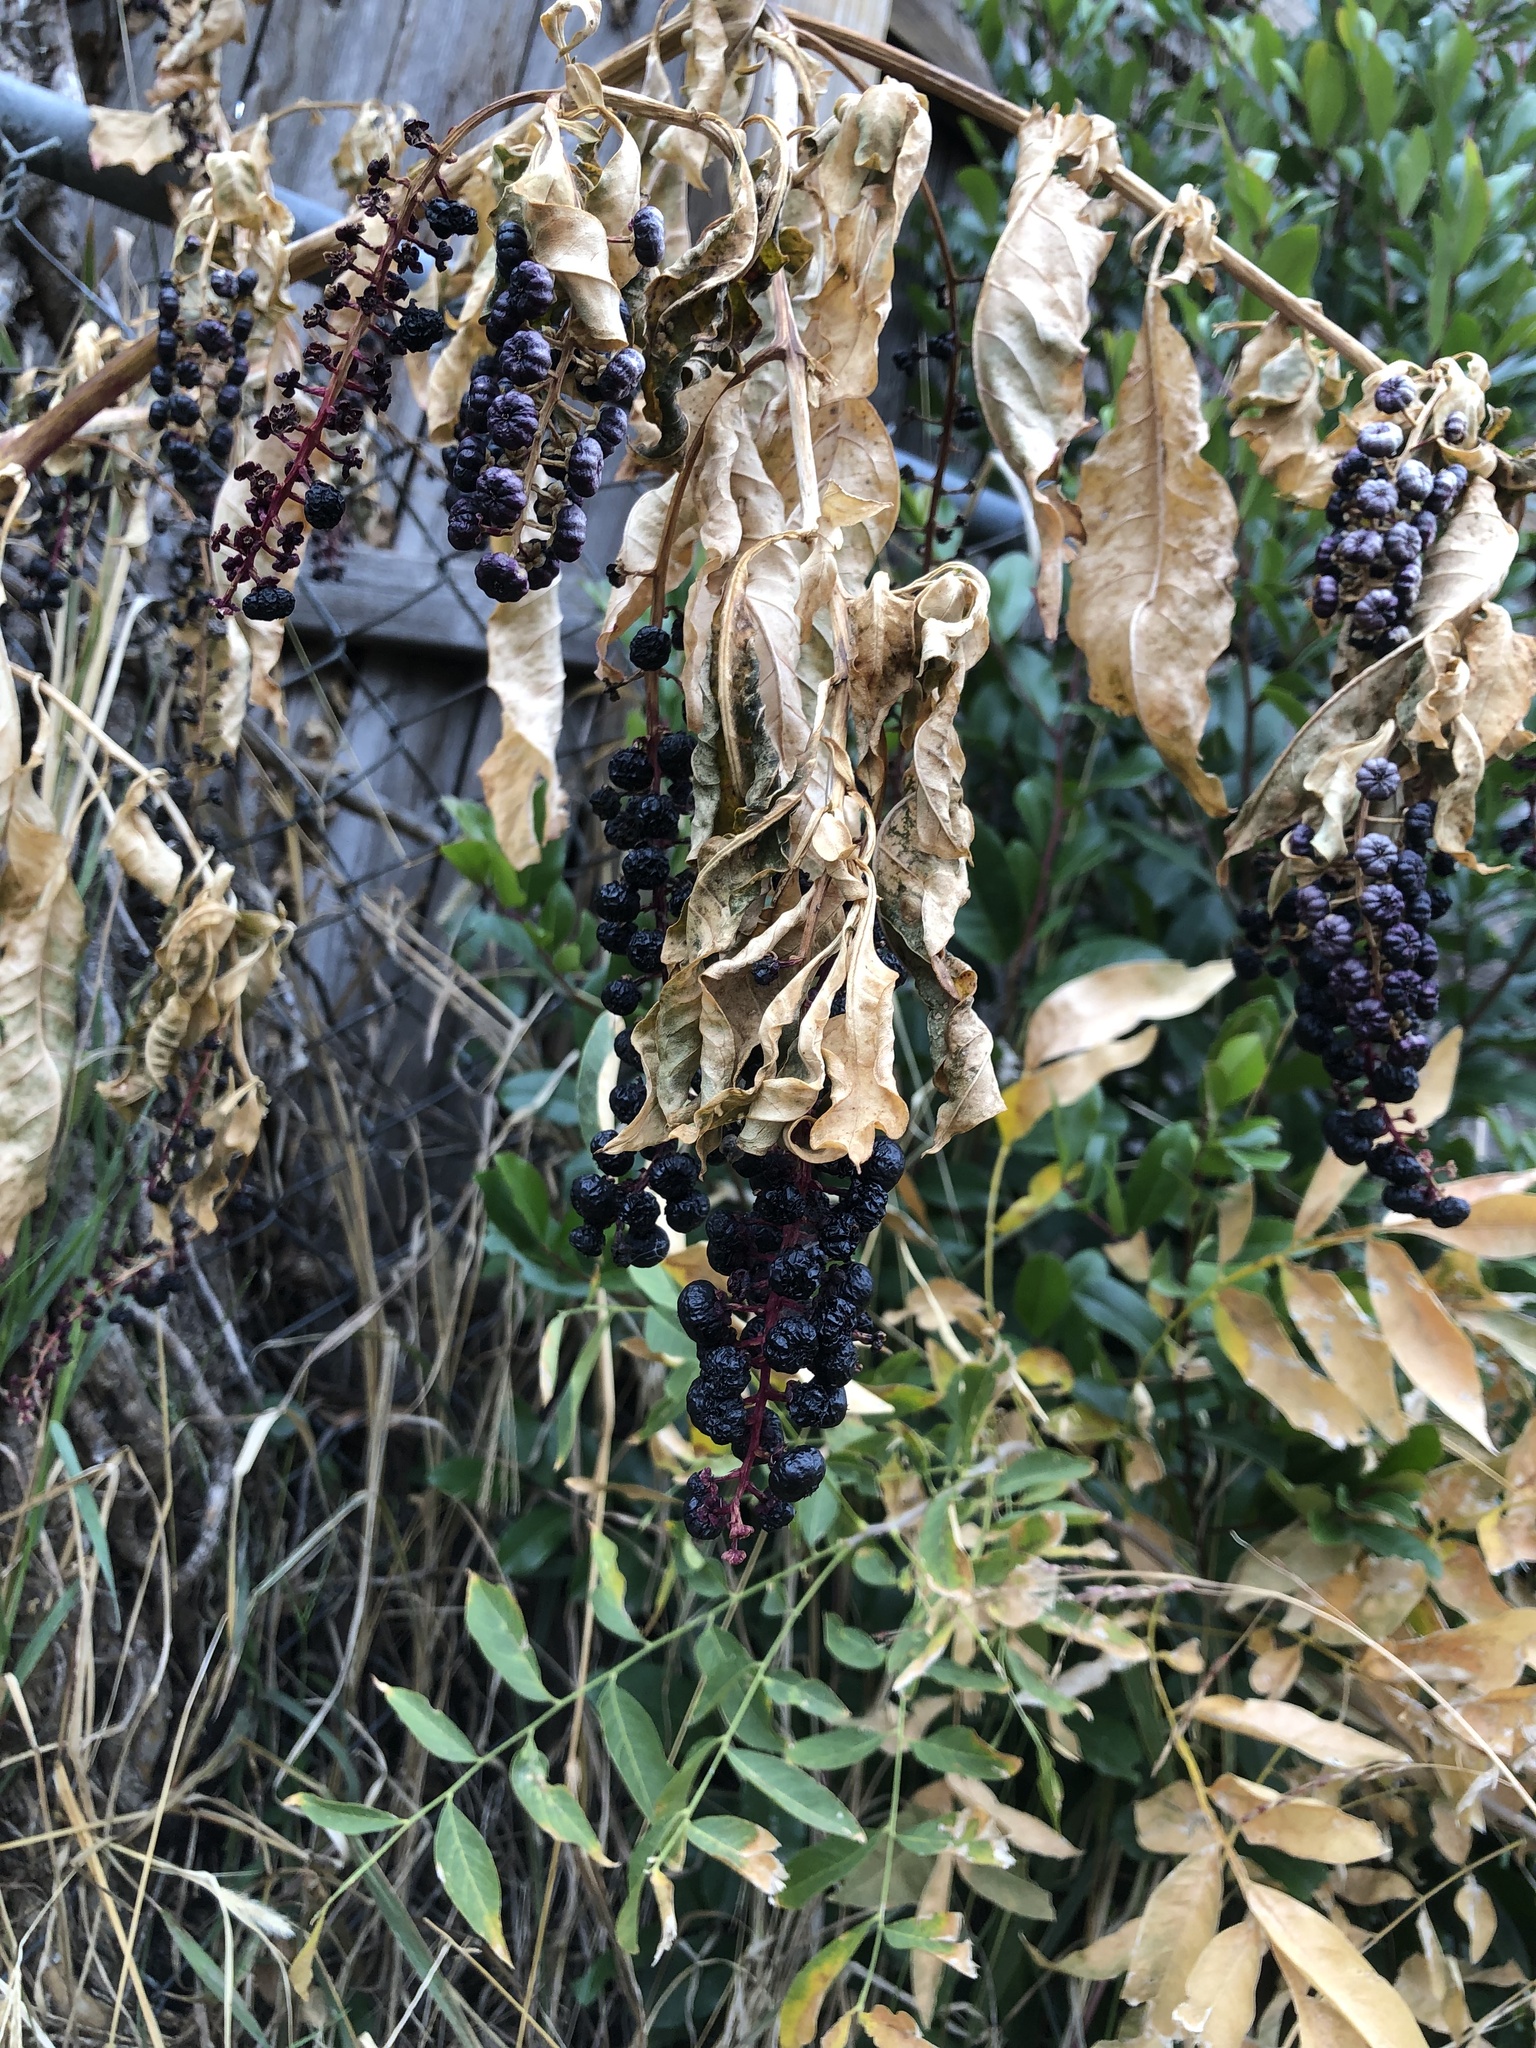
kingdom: Plantae
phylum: Tracheophyta
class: Magnoliopsida
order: Caryophyllales
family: Phytolaccaceae
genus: Phytolacca
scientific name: Phytolacca americana
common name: American pokeweed
